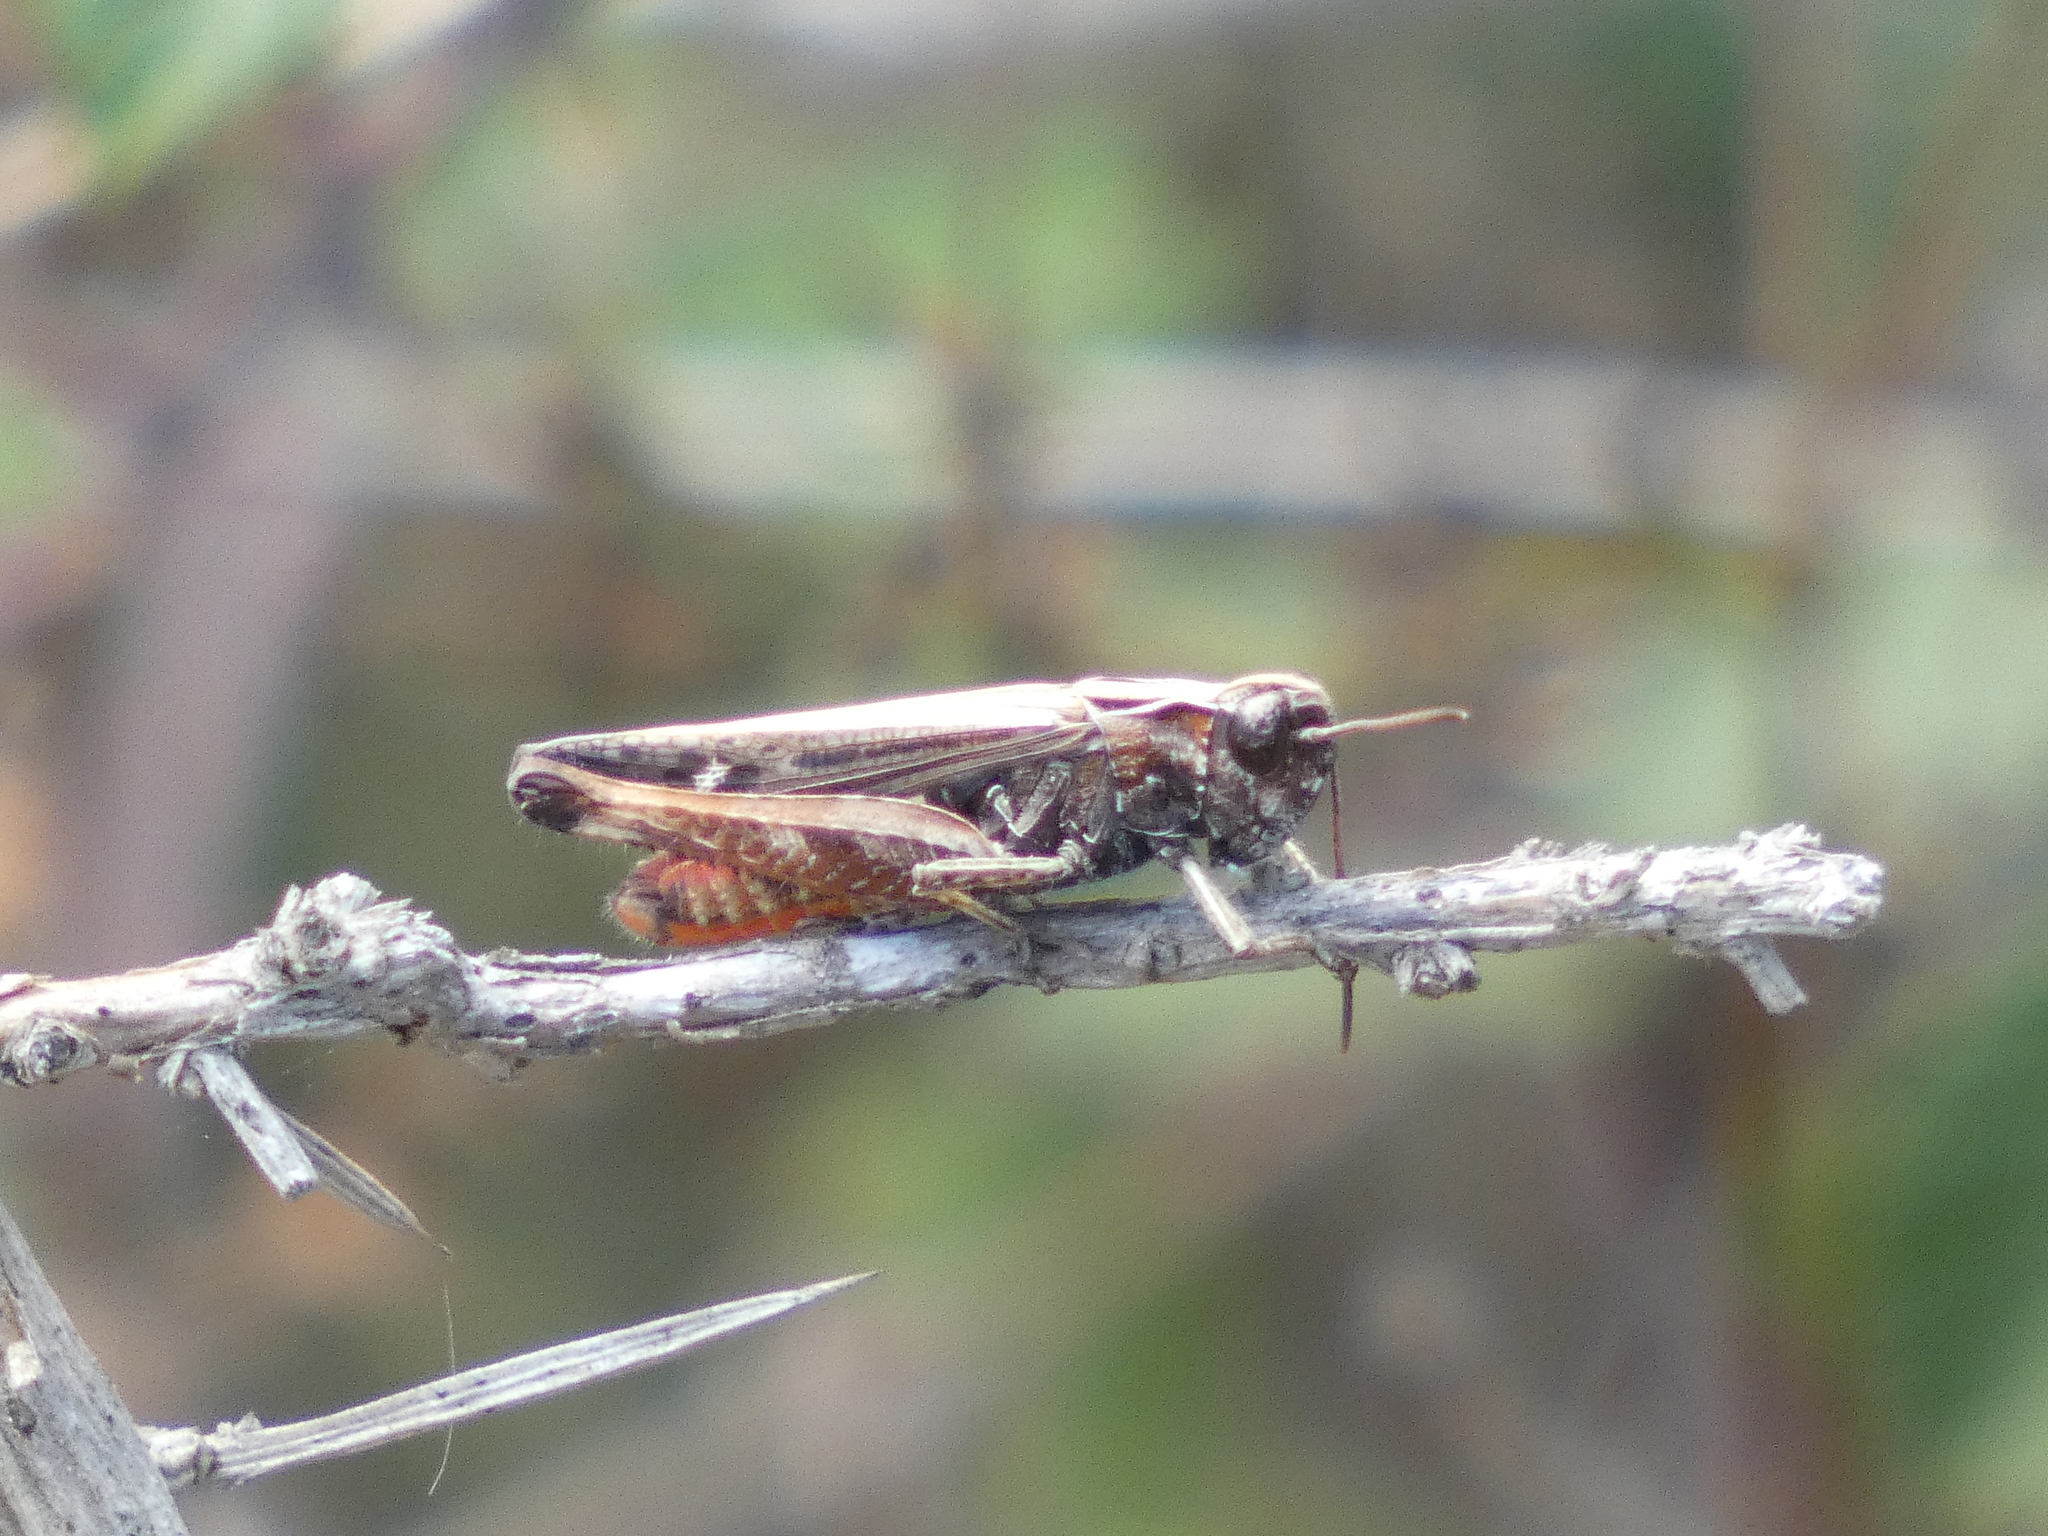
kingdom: Animalia
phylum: Arthropoda
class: Insecta
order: Orthoptera
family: Acrididae
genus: Omocestus
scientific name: Omocestus rufipes
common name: Woodland grasshopper
